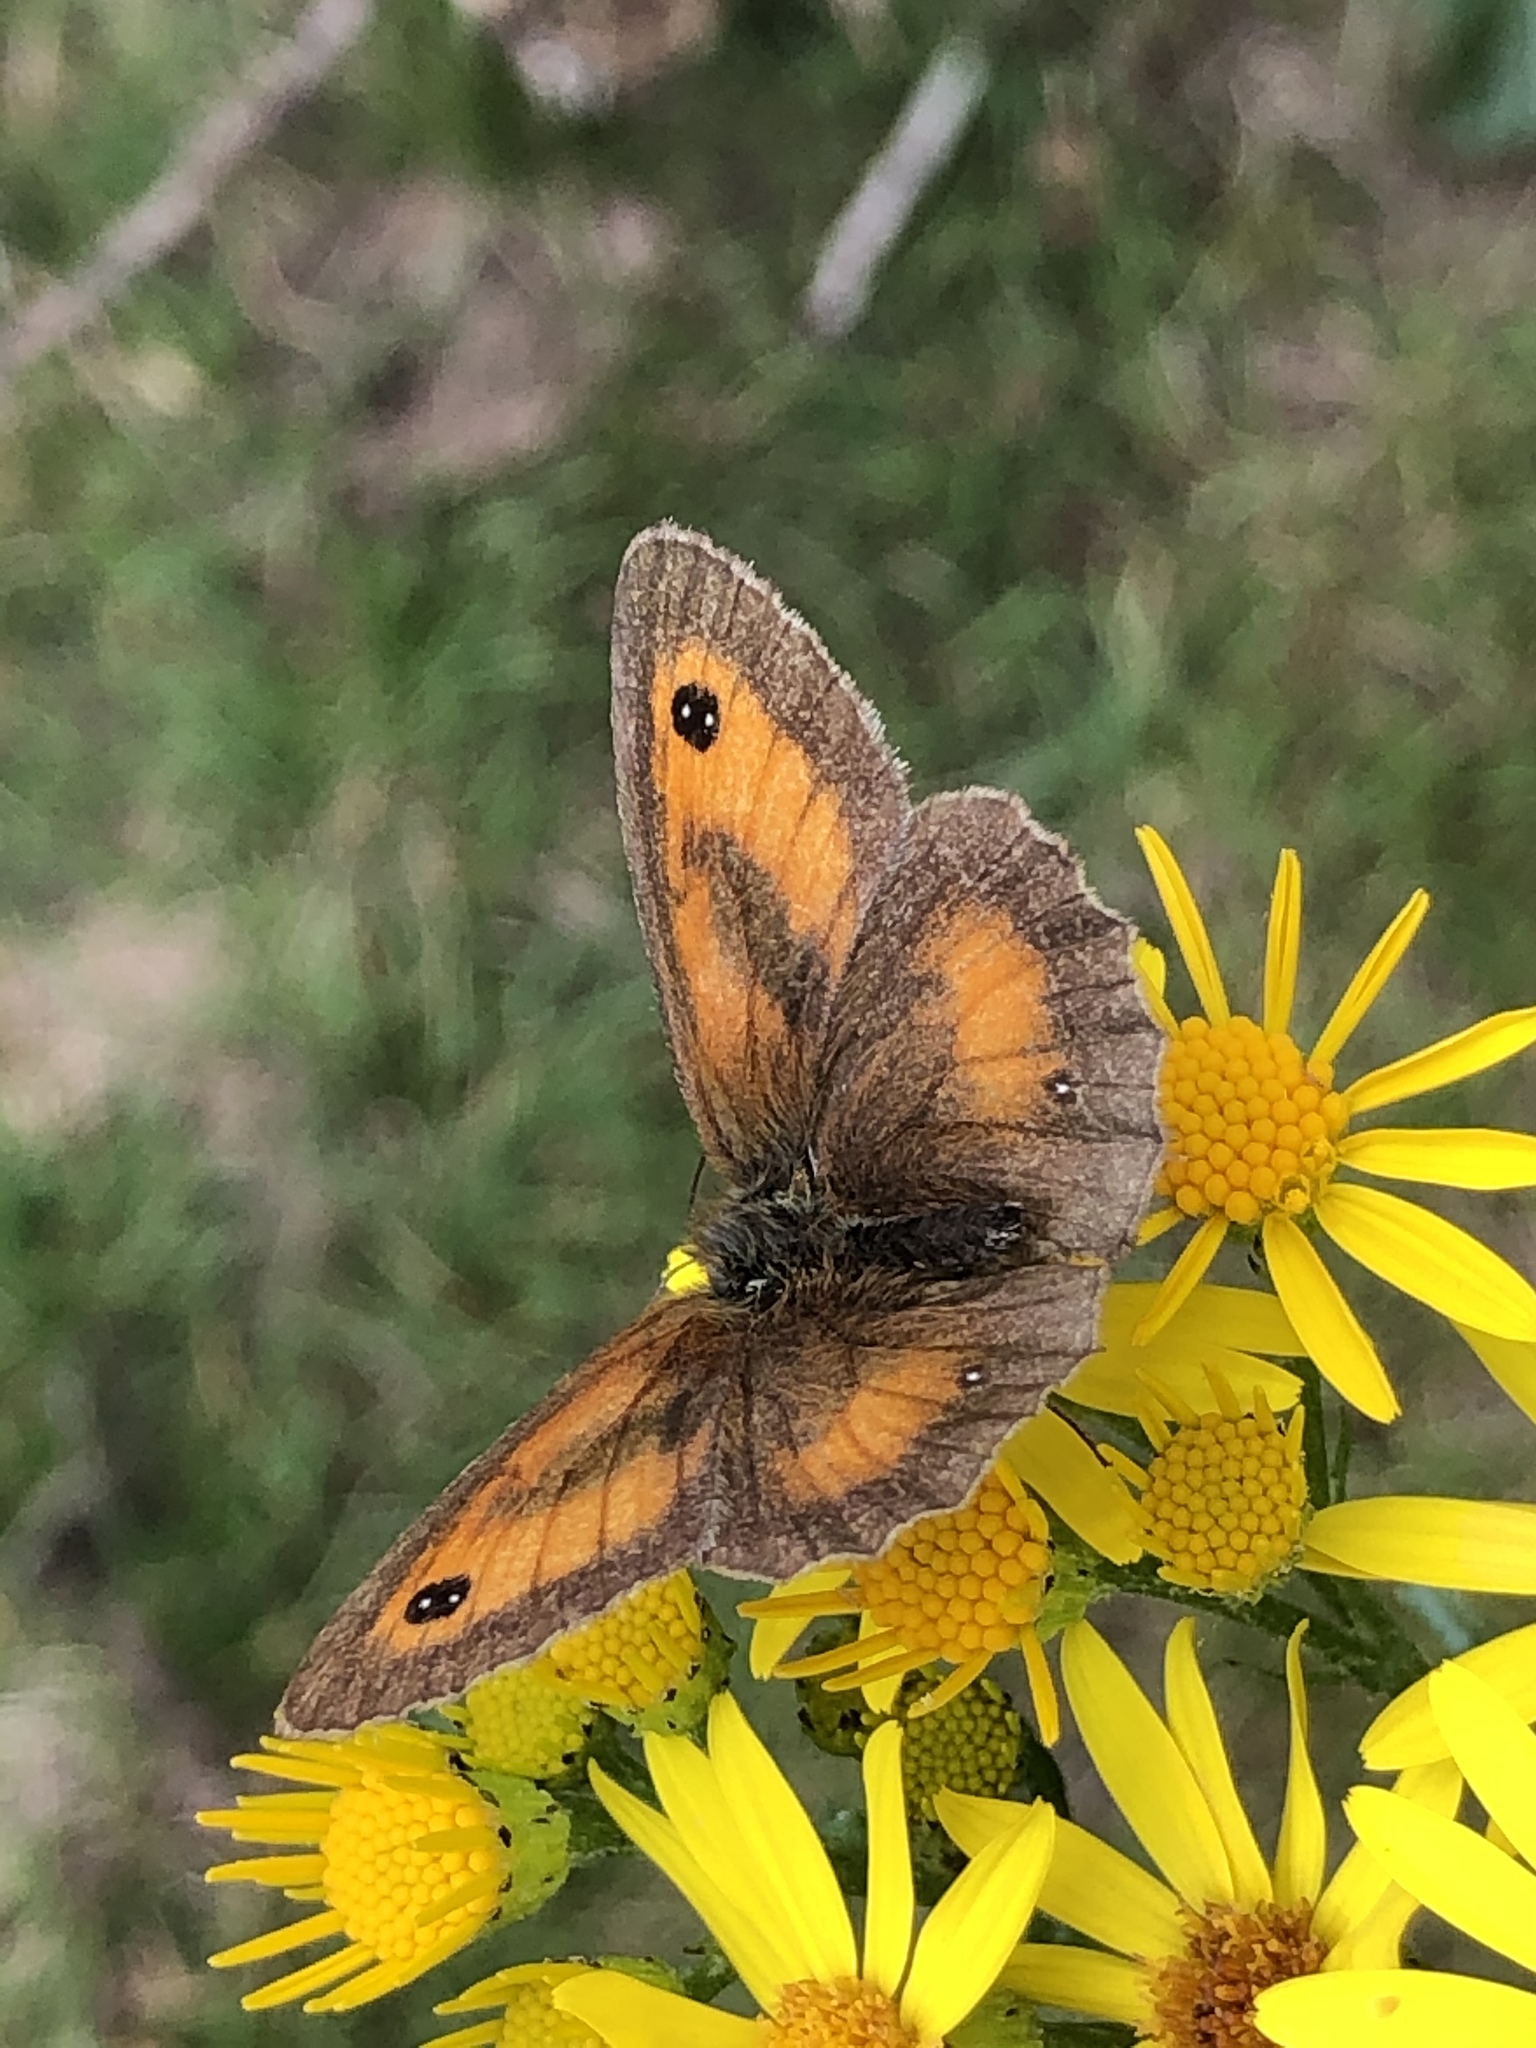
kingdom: Animalia
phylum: Arthropoda
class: Insecta
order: Lepidoptera
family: Nymphalidae
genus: Pyronia
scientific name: Pyronia tithonus
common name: Gatekeeper
